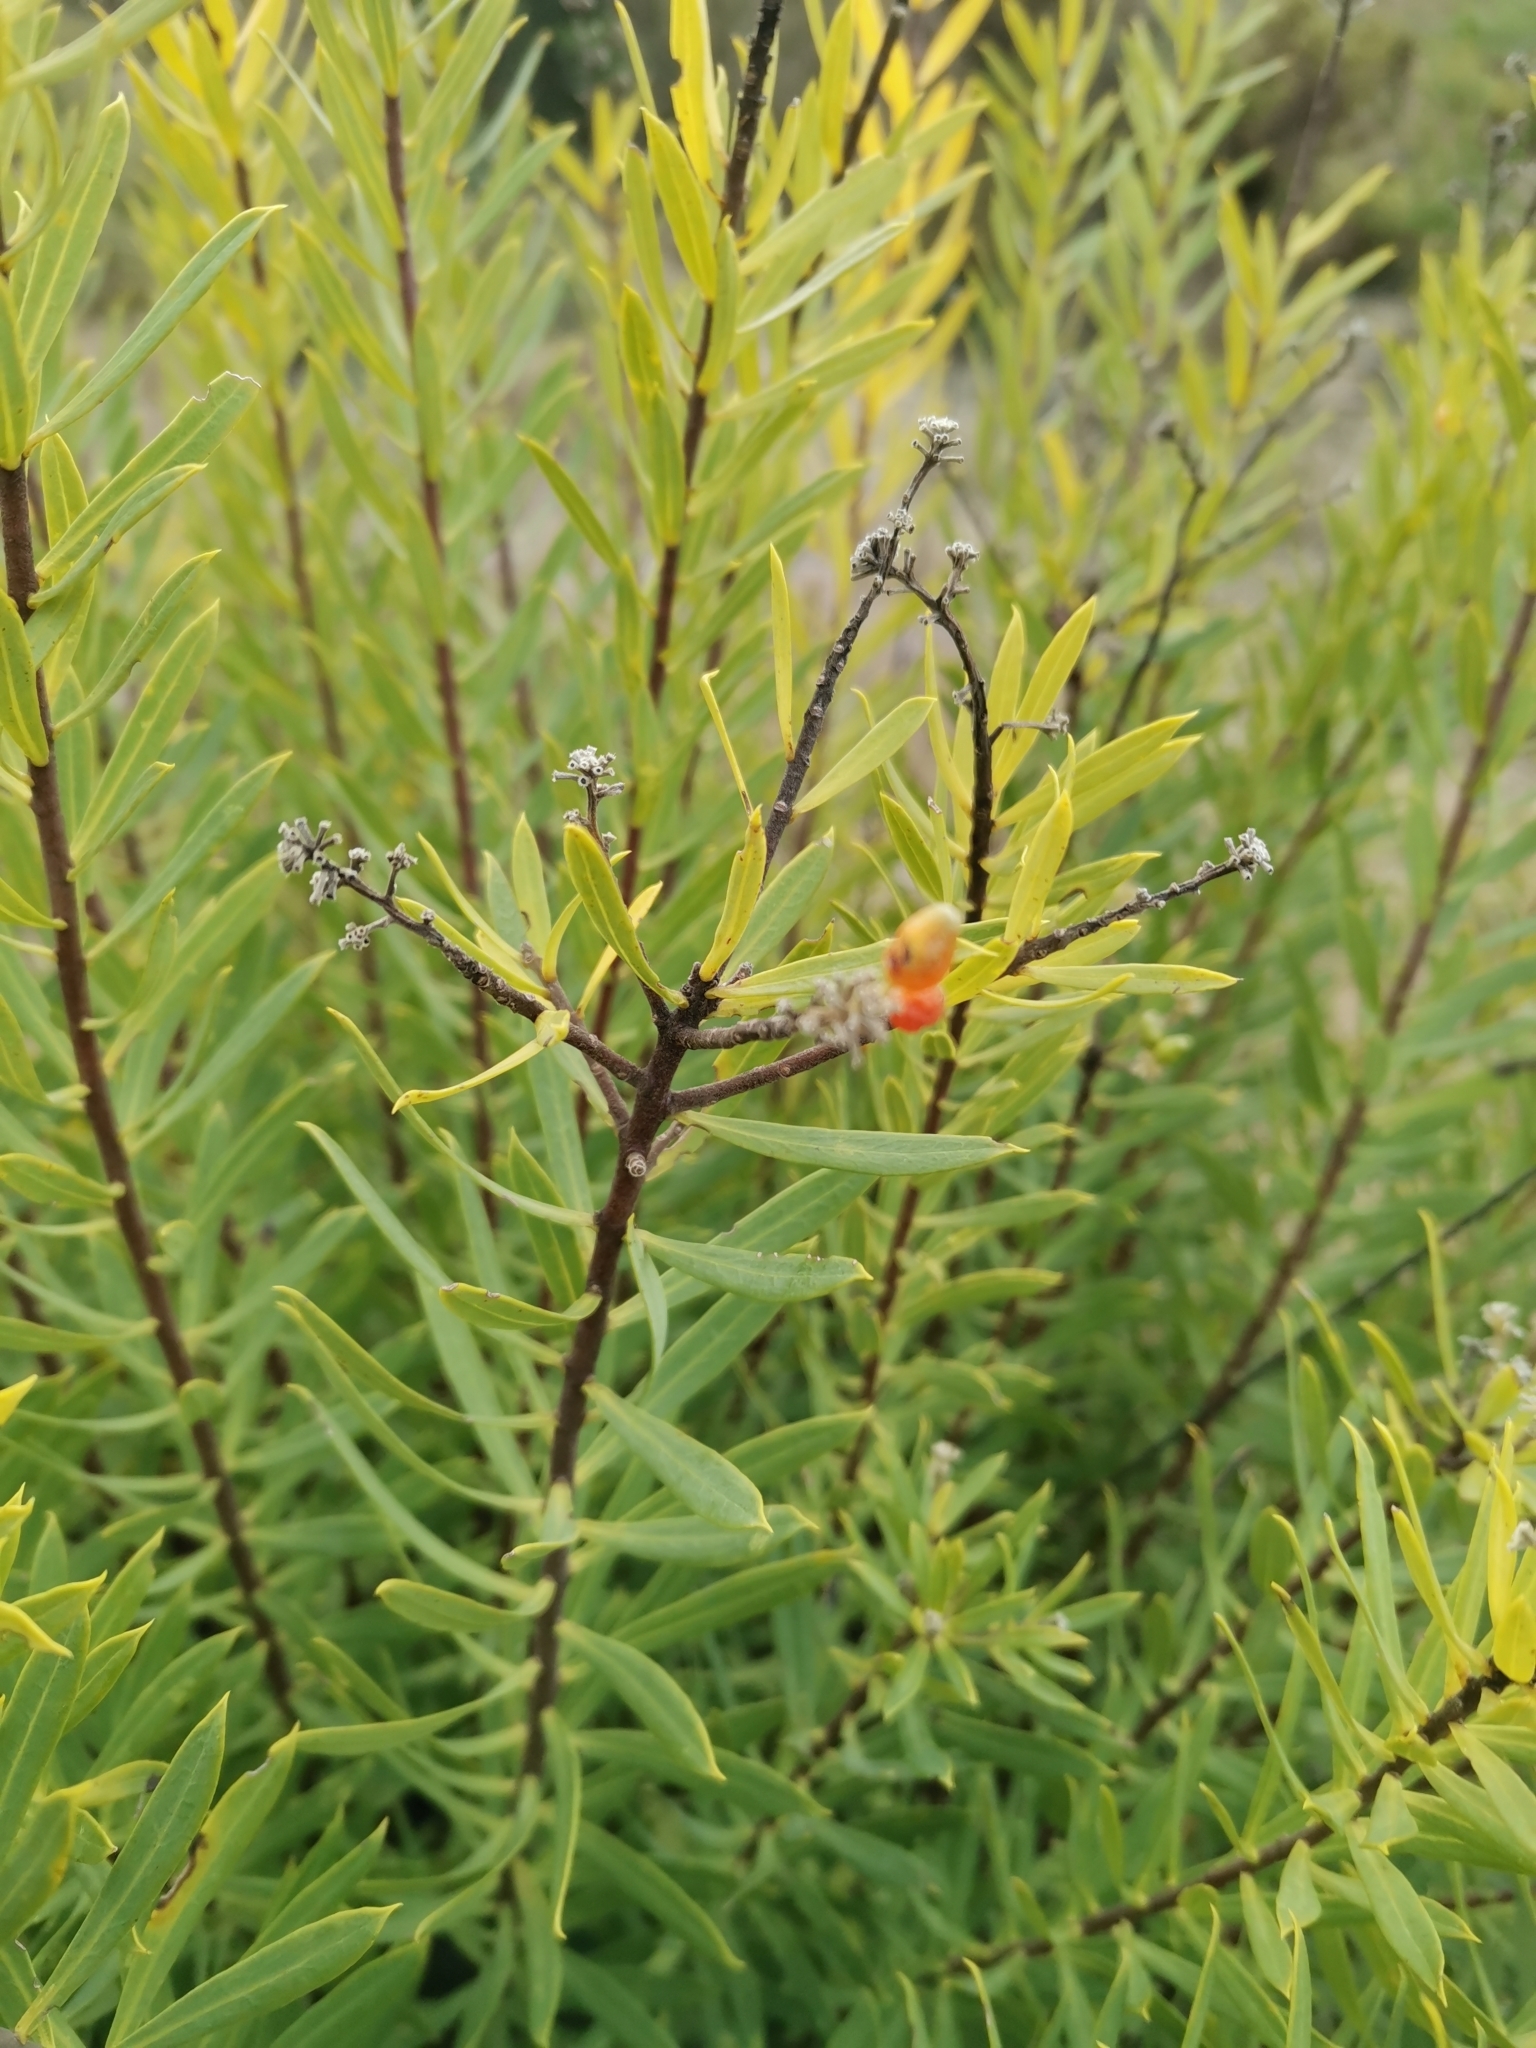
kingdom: Plantae
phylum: Tracheophyta
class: Magnoliopsida
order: Malvales
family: Thymelaeaceae
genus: Daphne
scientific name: Daphne gnidium
